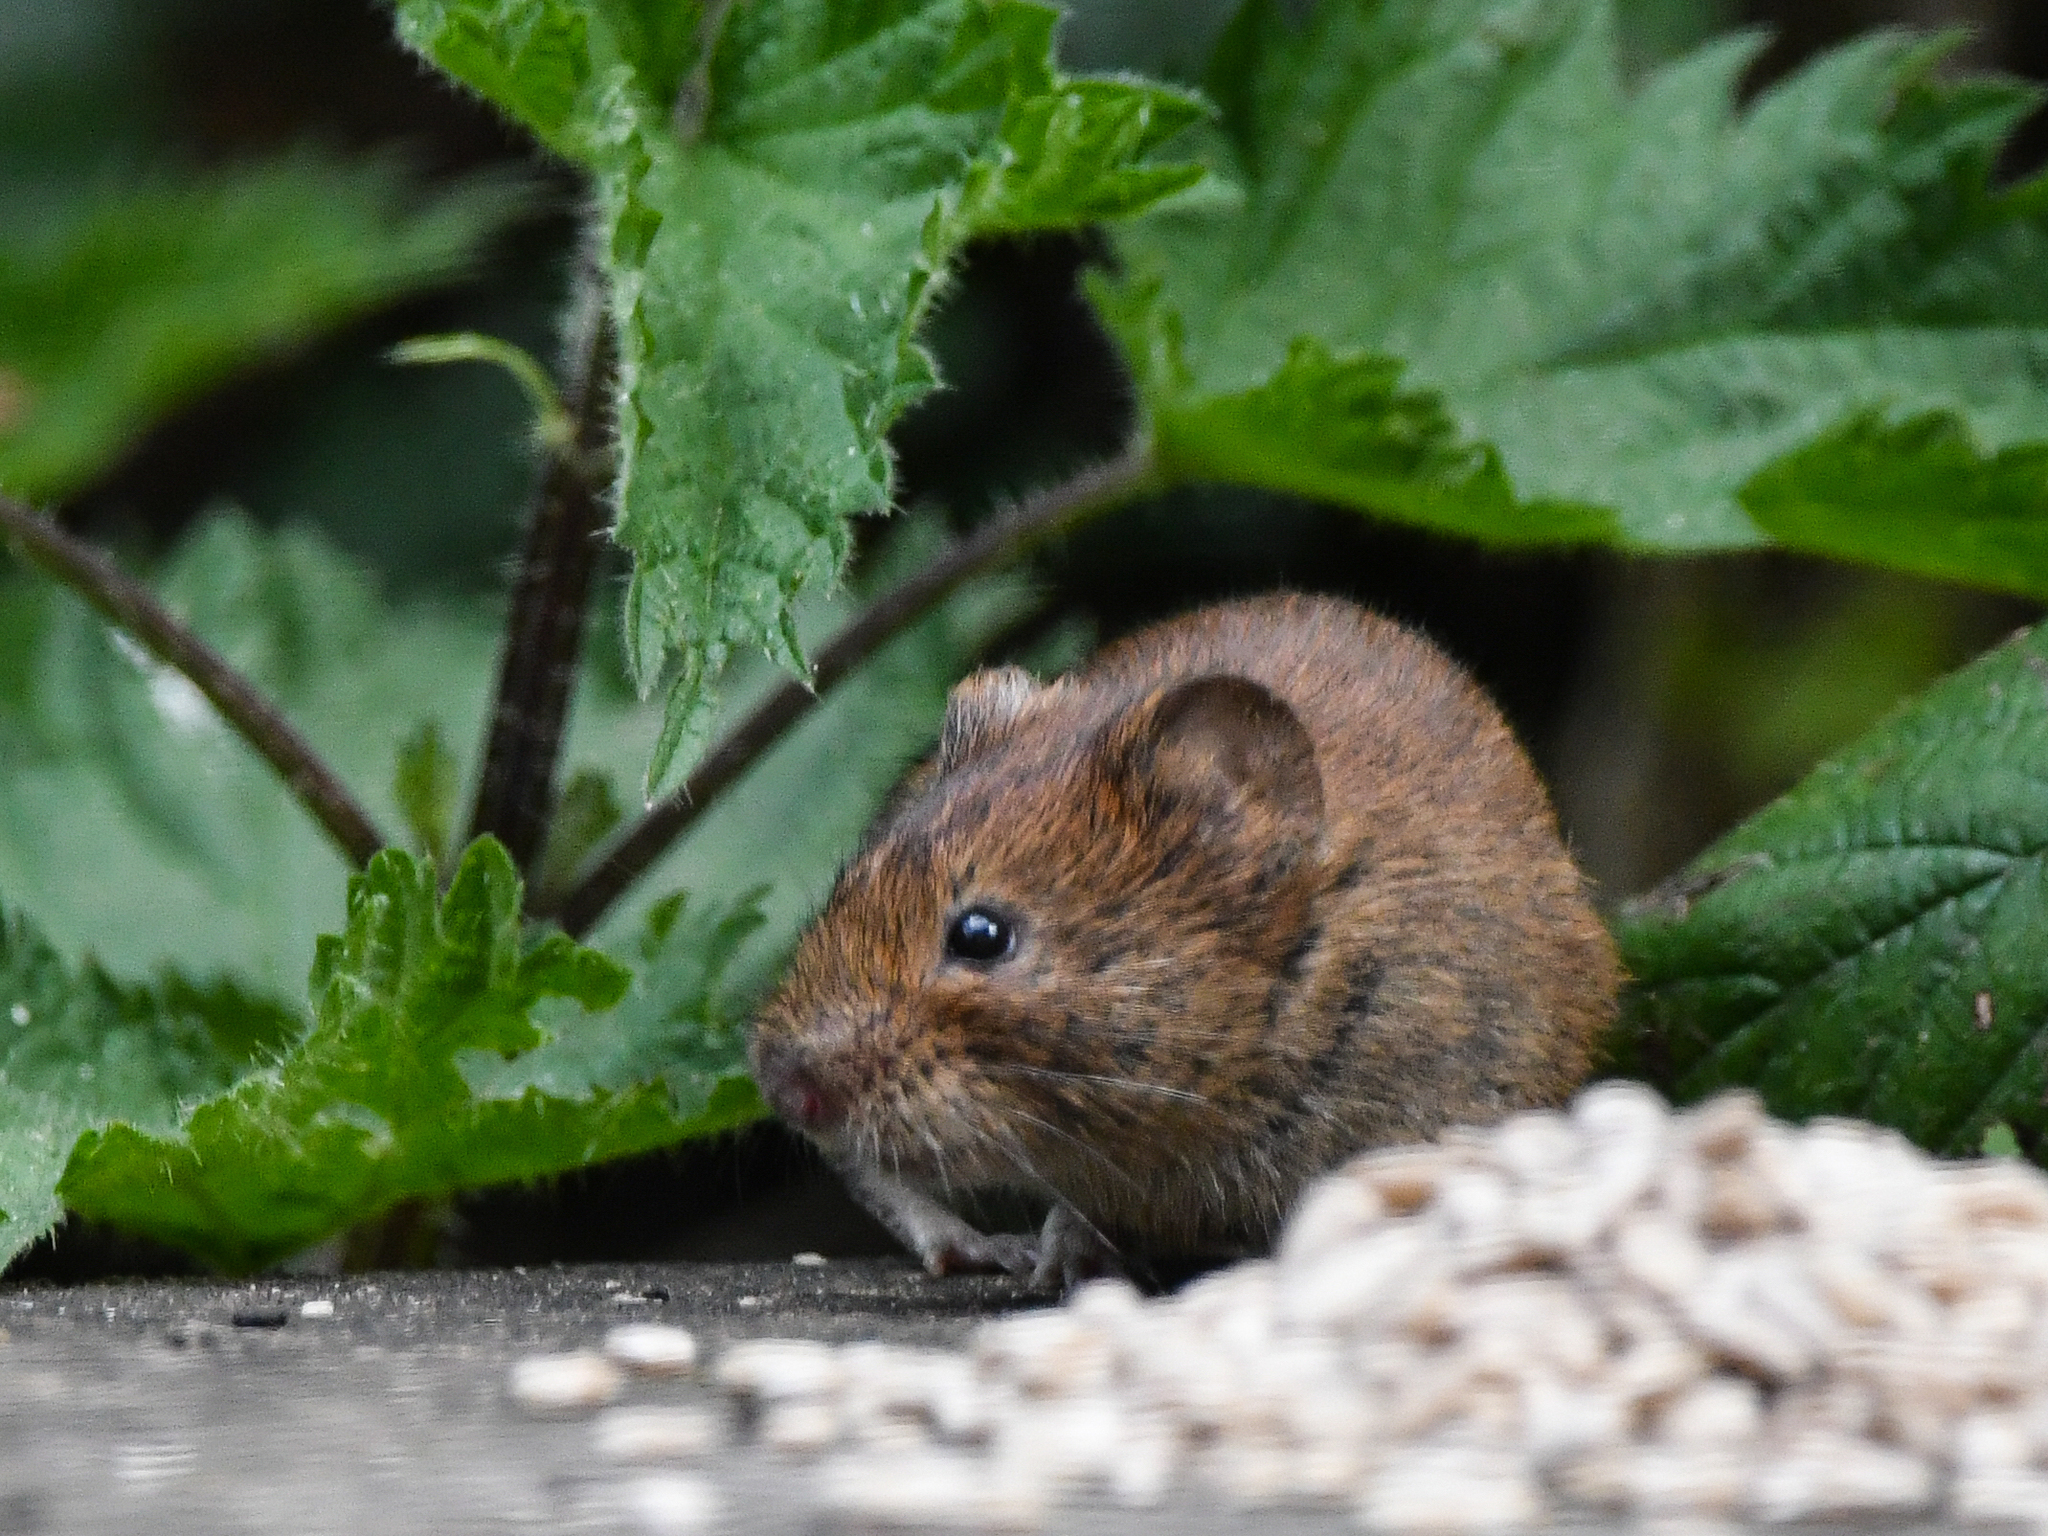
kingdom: Animalia
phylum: Chordata
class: Mammalia
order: Rodentia
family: Cricetidae
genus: Myodes
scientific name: Myodes glareolus
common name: Bank vole
